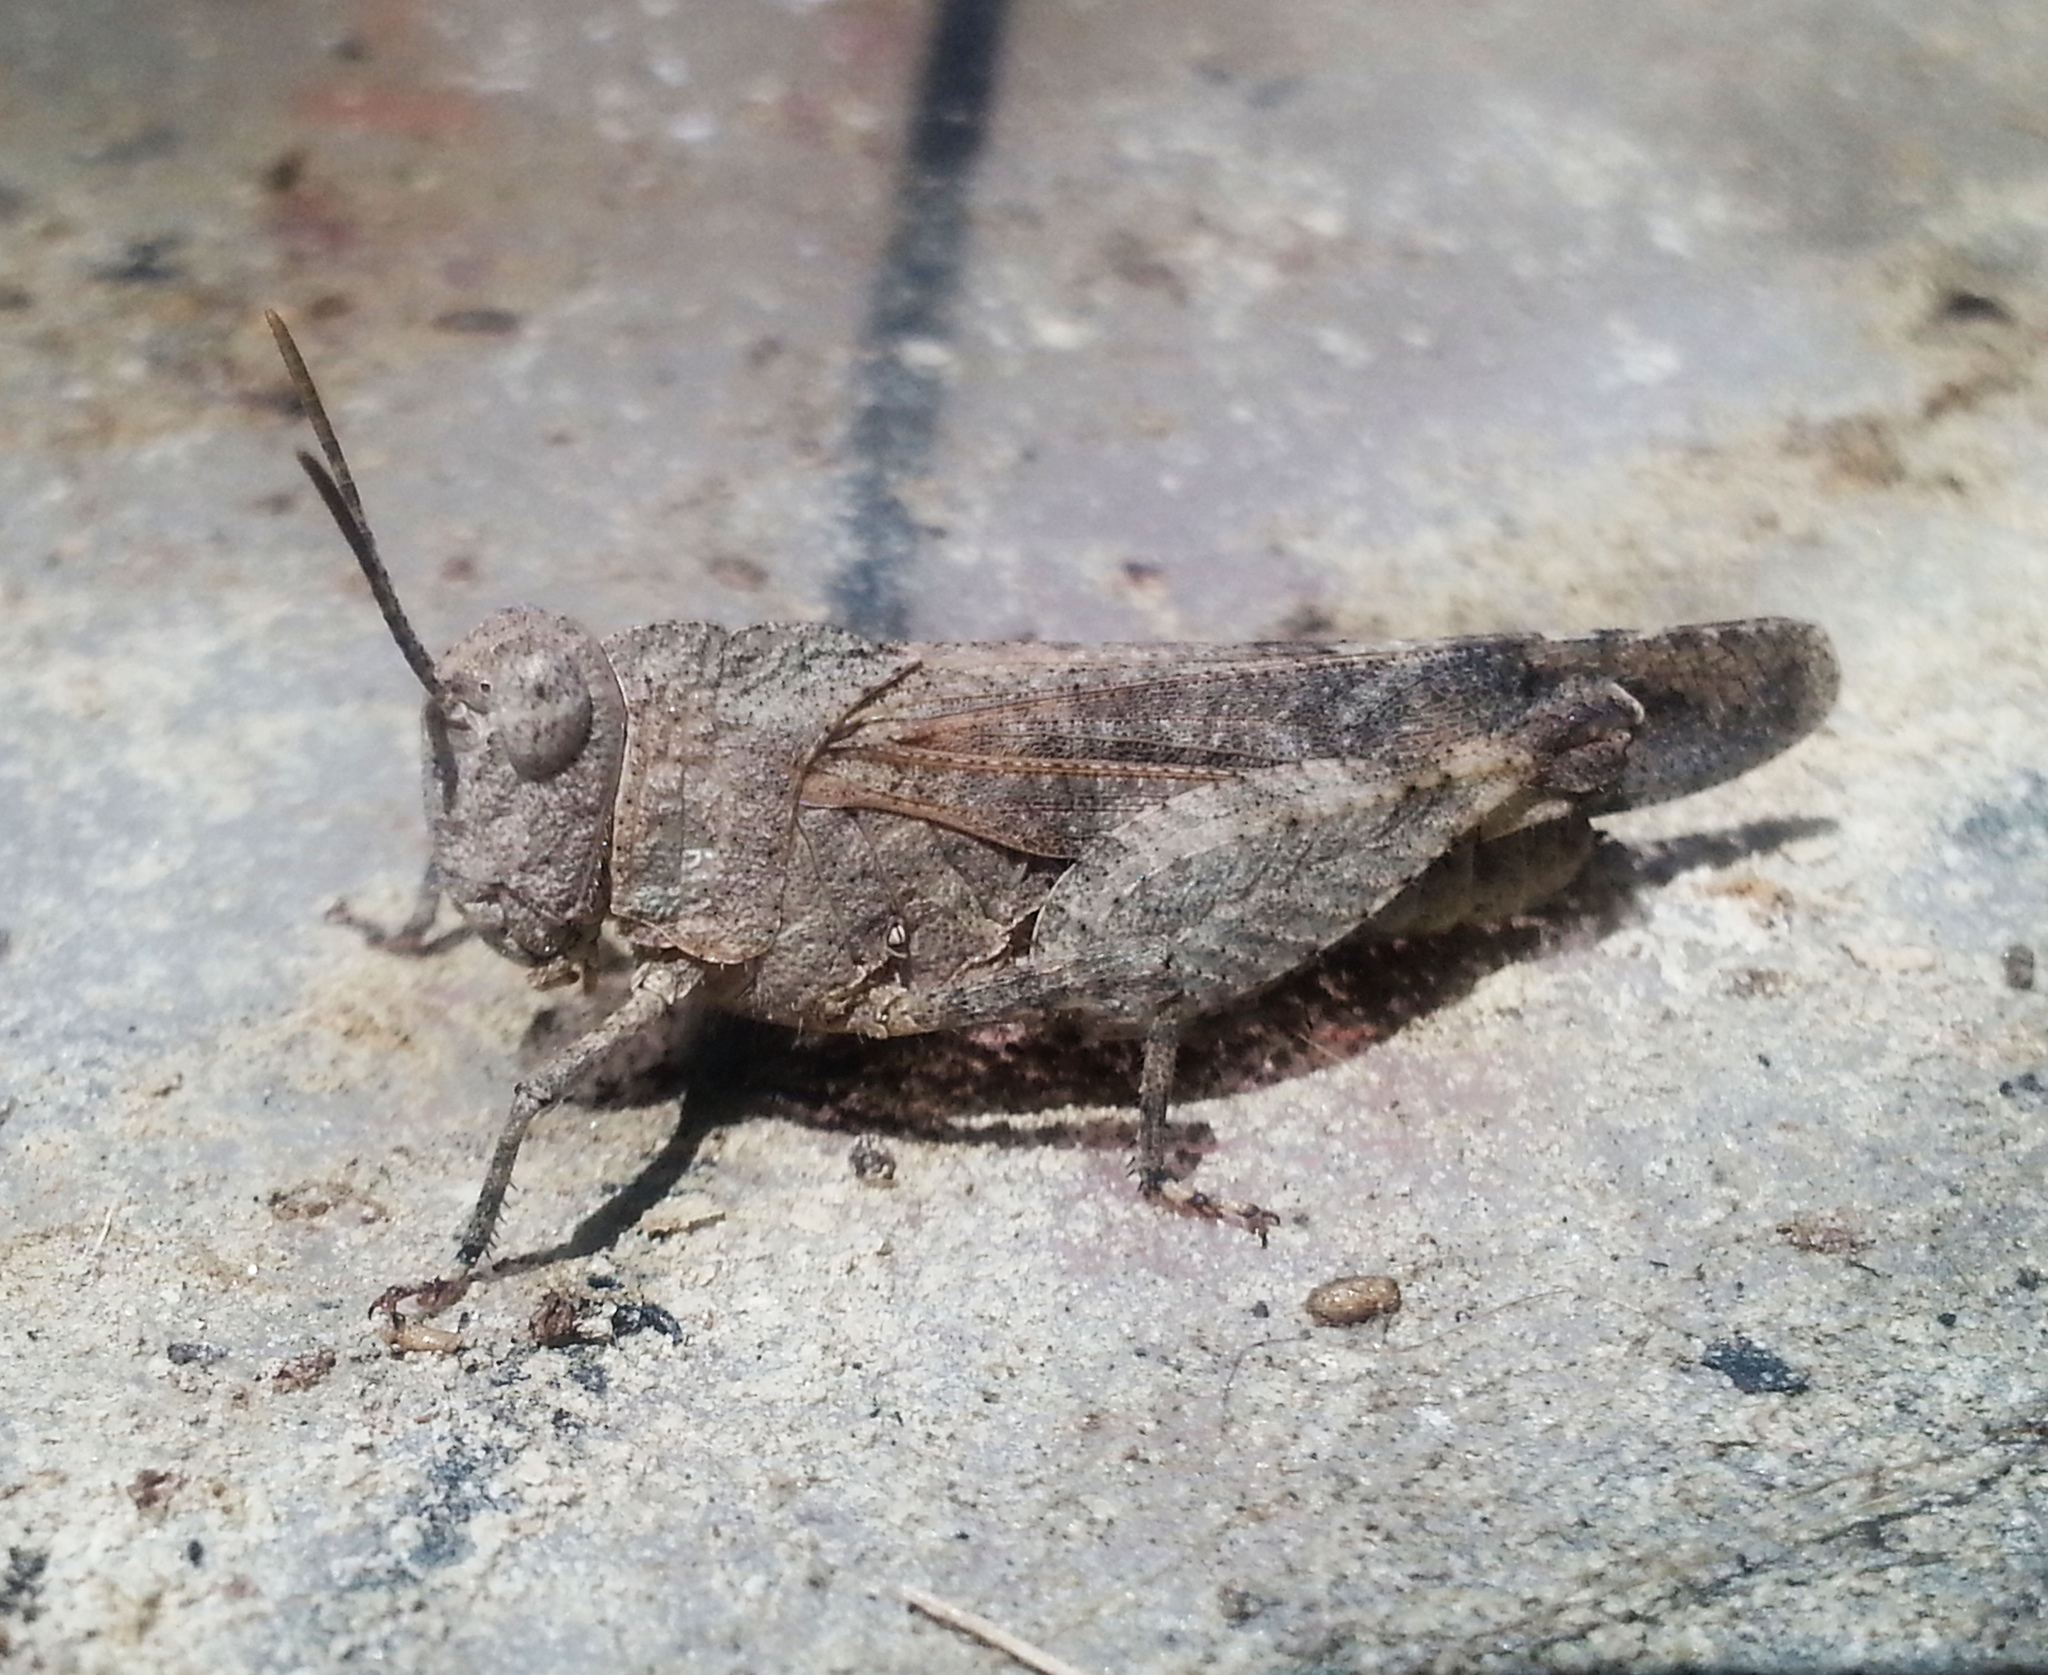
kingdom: Animalia
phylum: Arthropoda
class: Insecta
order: Orthoptera
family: Acrididae
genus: Lactista
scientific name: Lactista gibbosus
